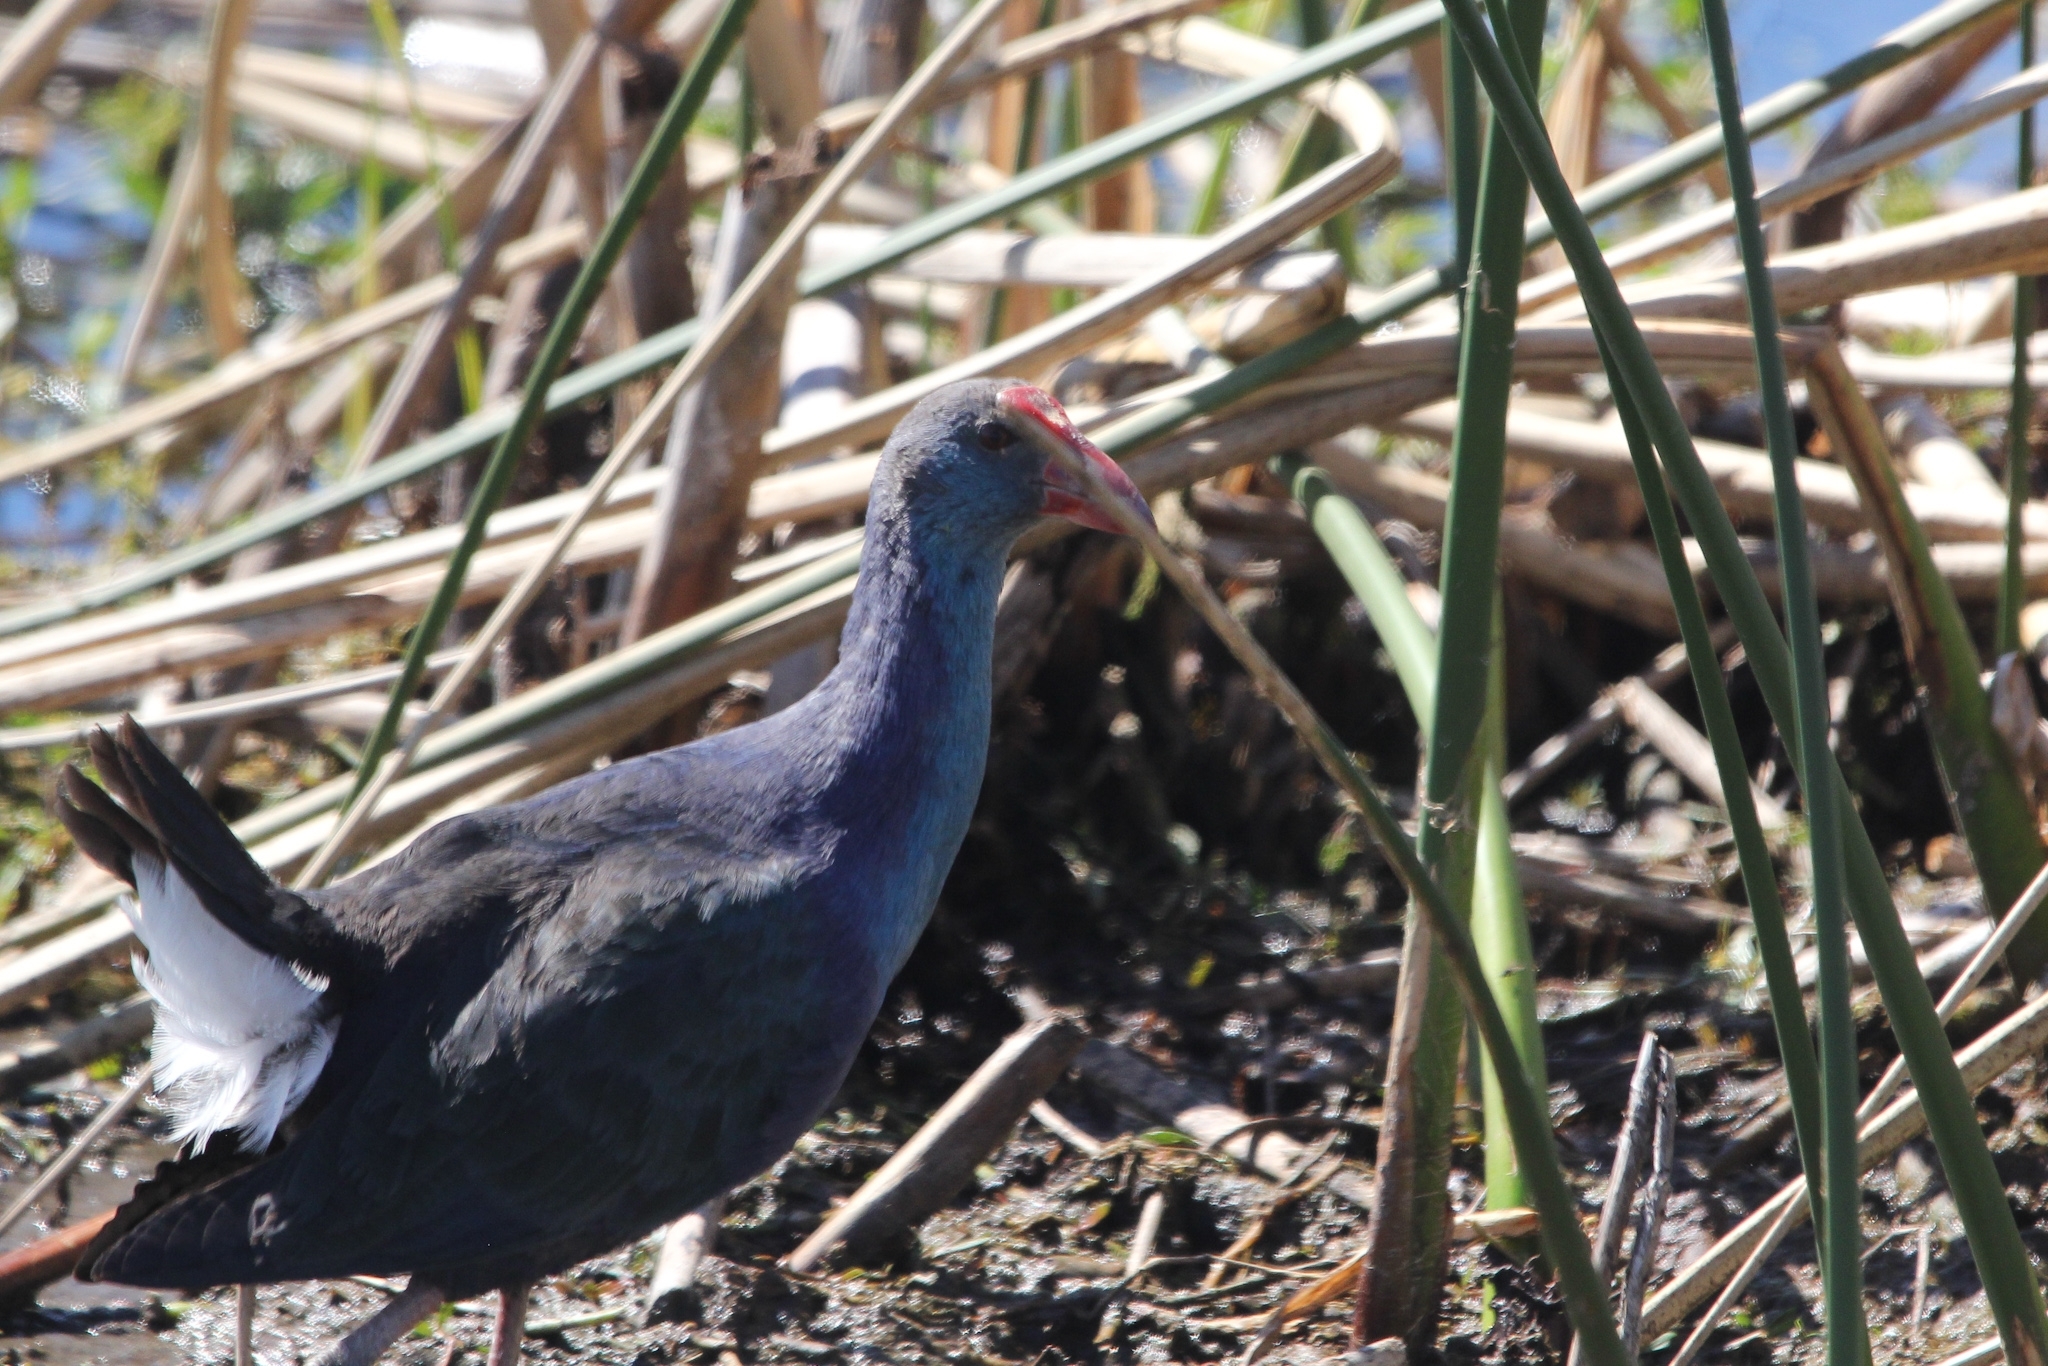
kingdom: Animalia
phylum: Chordata
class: Aves
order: Gruiformes
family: Rallidae
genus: Porphyrio
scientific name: Porphyrio porphyrio
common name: Purple swamphen
